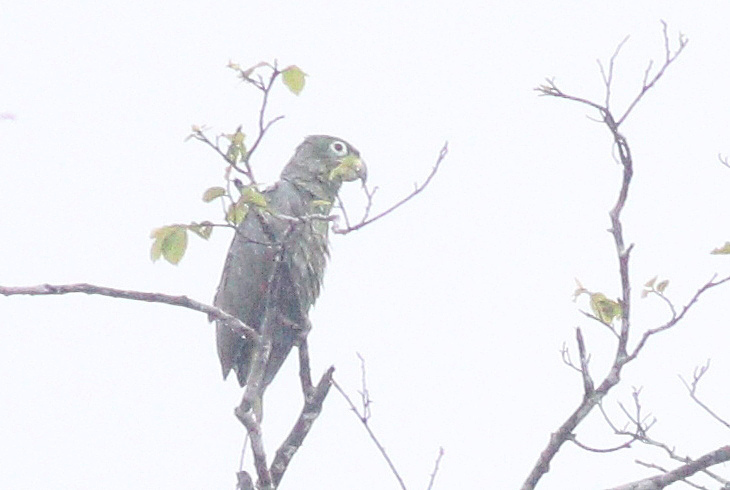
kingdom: Animalia
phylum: Chordata
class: Aves
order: Psittaciformes
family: Psittacidae
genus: Amazona
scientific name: Amazona farinosa
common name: Mealy parrot
